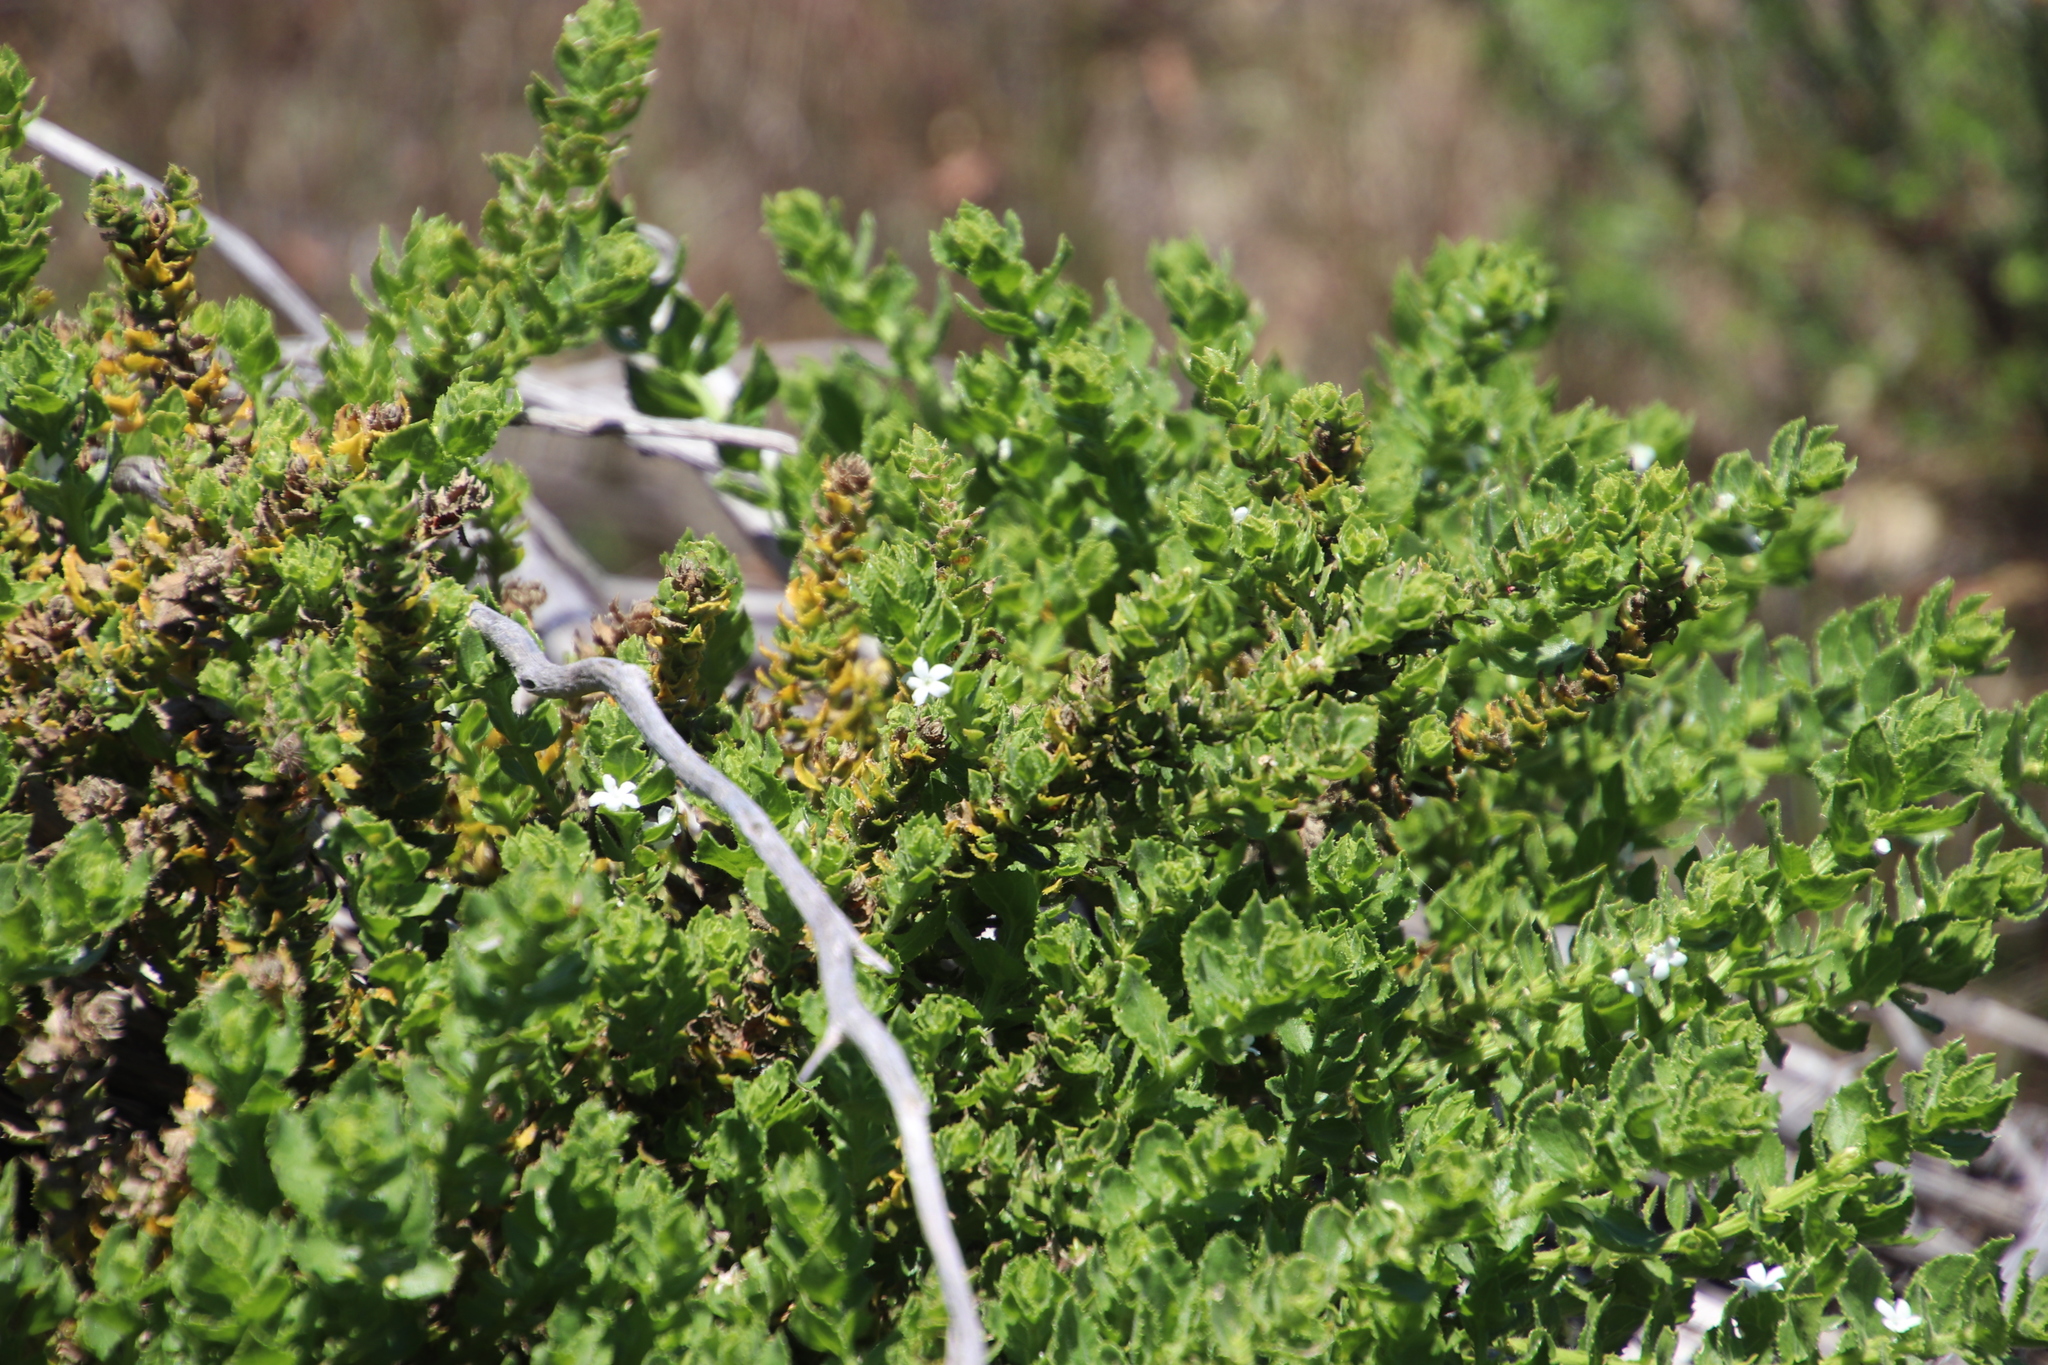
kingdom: Plantae
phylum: Tracheophyta
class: Magnoliopsida
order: Lamiales
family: Scrophulariaceae
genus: Oftia
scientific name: Oftia africana
